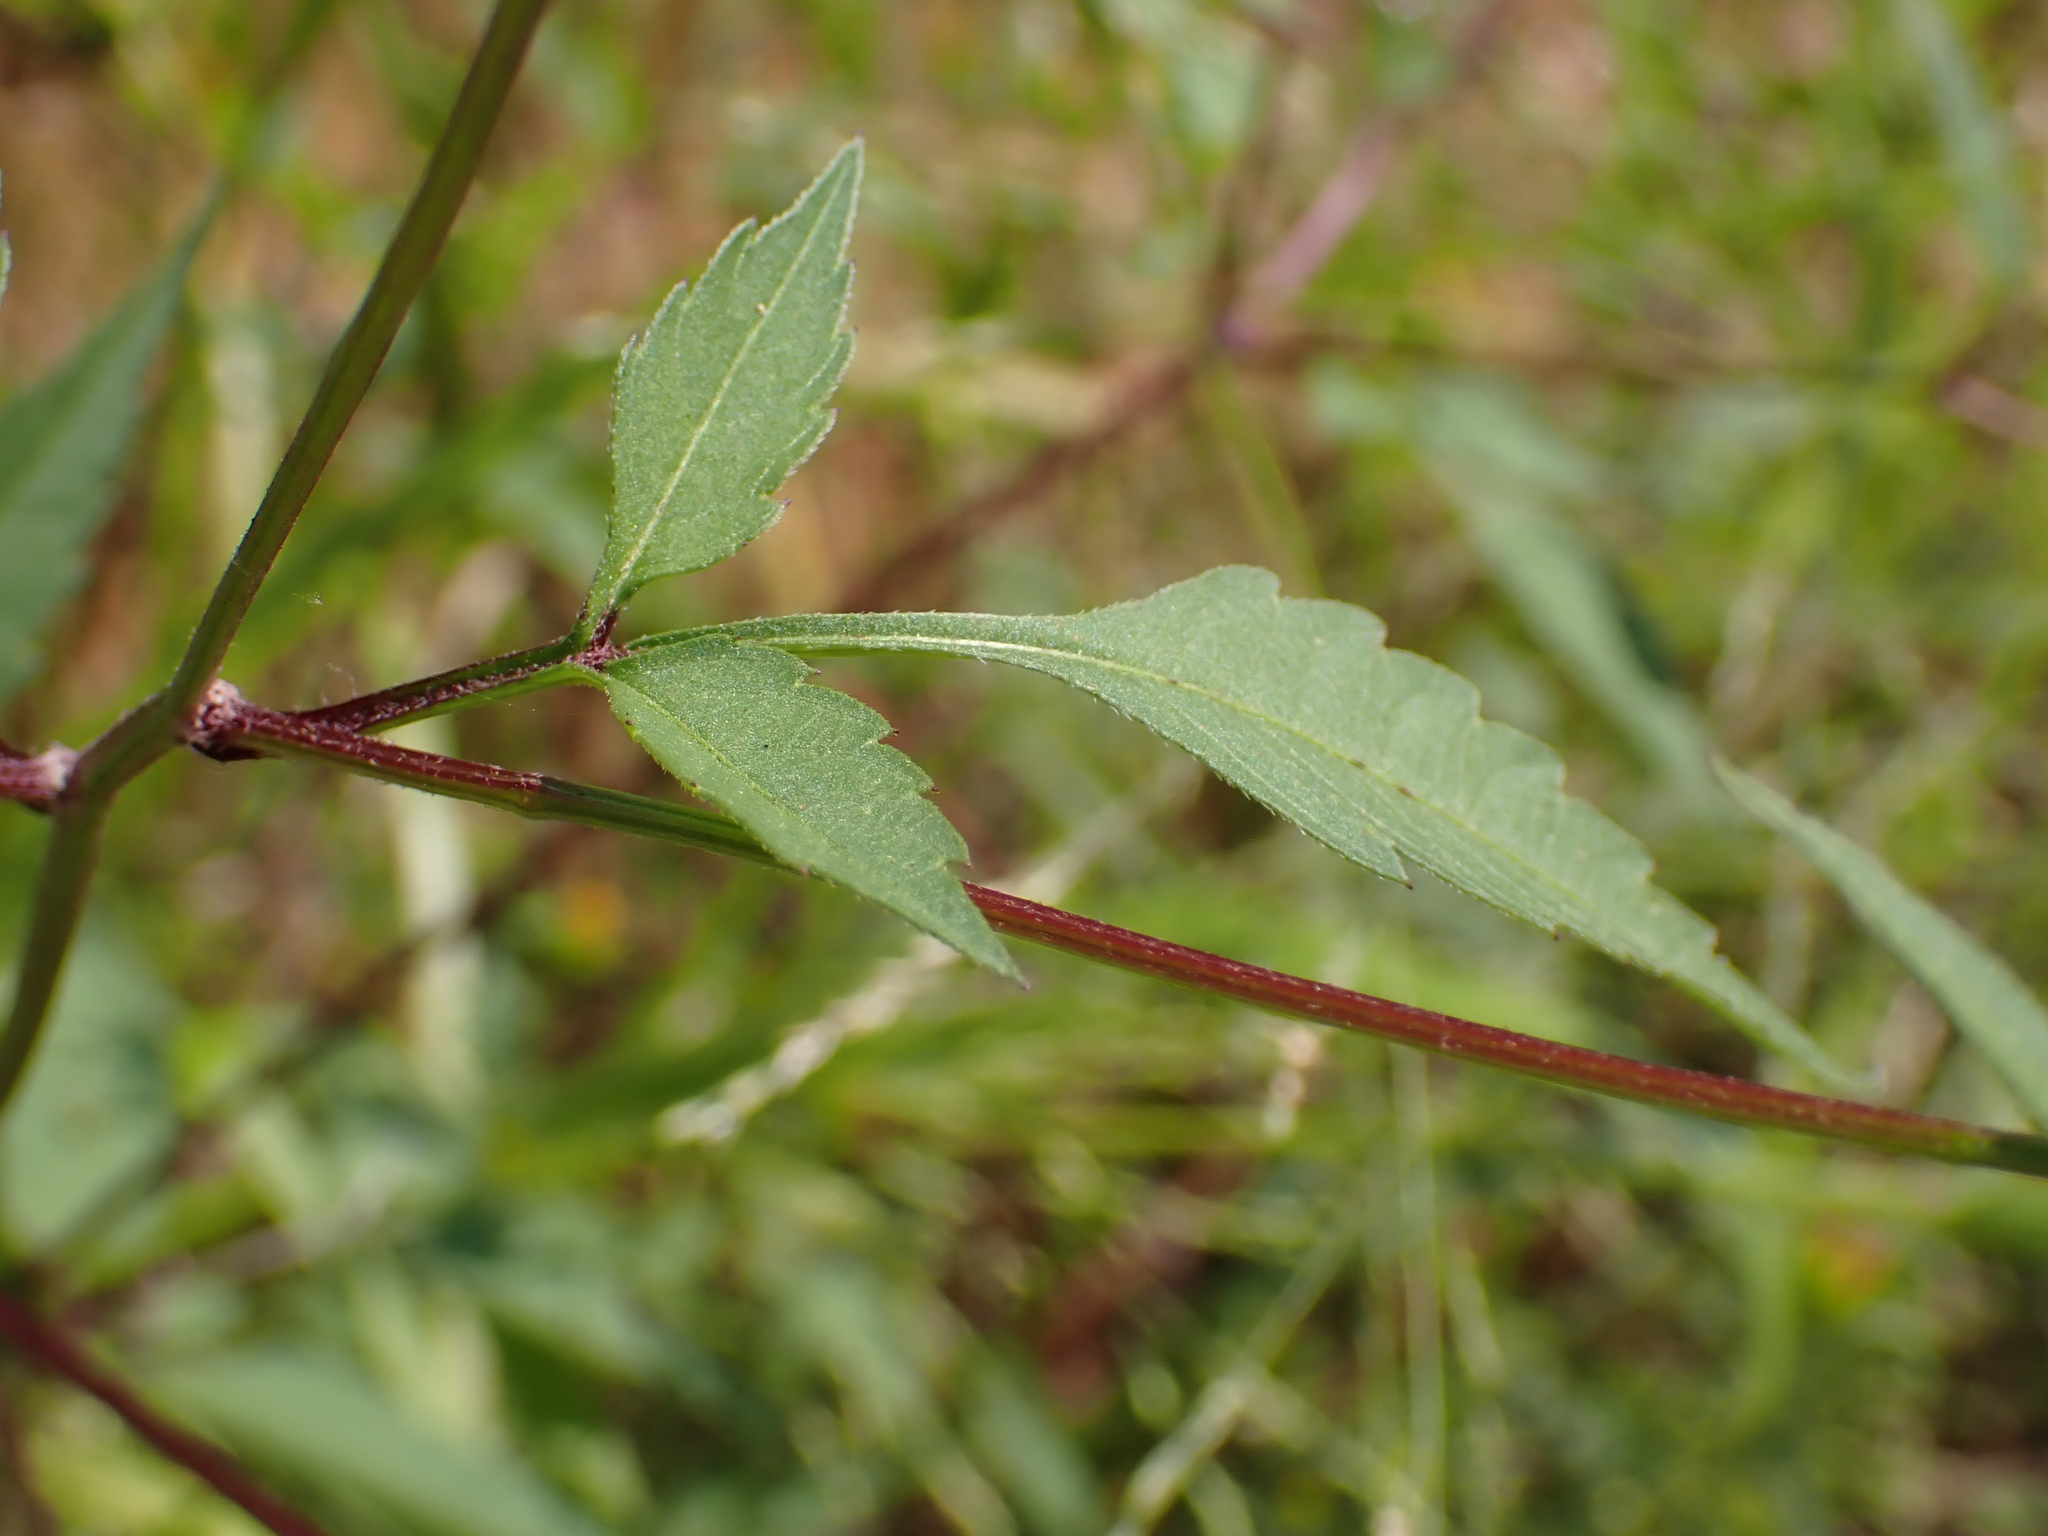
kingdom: Plantae
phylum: Tracheophyta
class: Magnoliopsida
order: Asterales
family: Asteraceae
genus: Bidens
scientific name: Bidens frondosa
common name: Beggarticks
